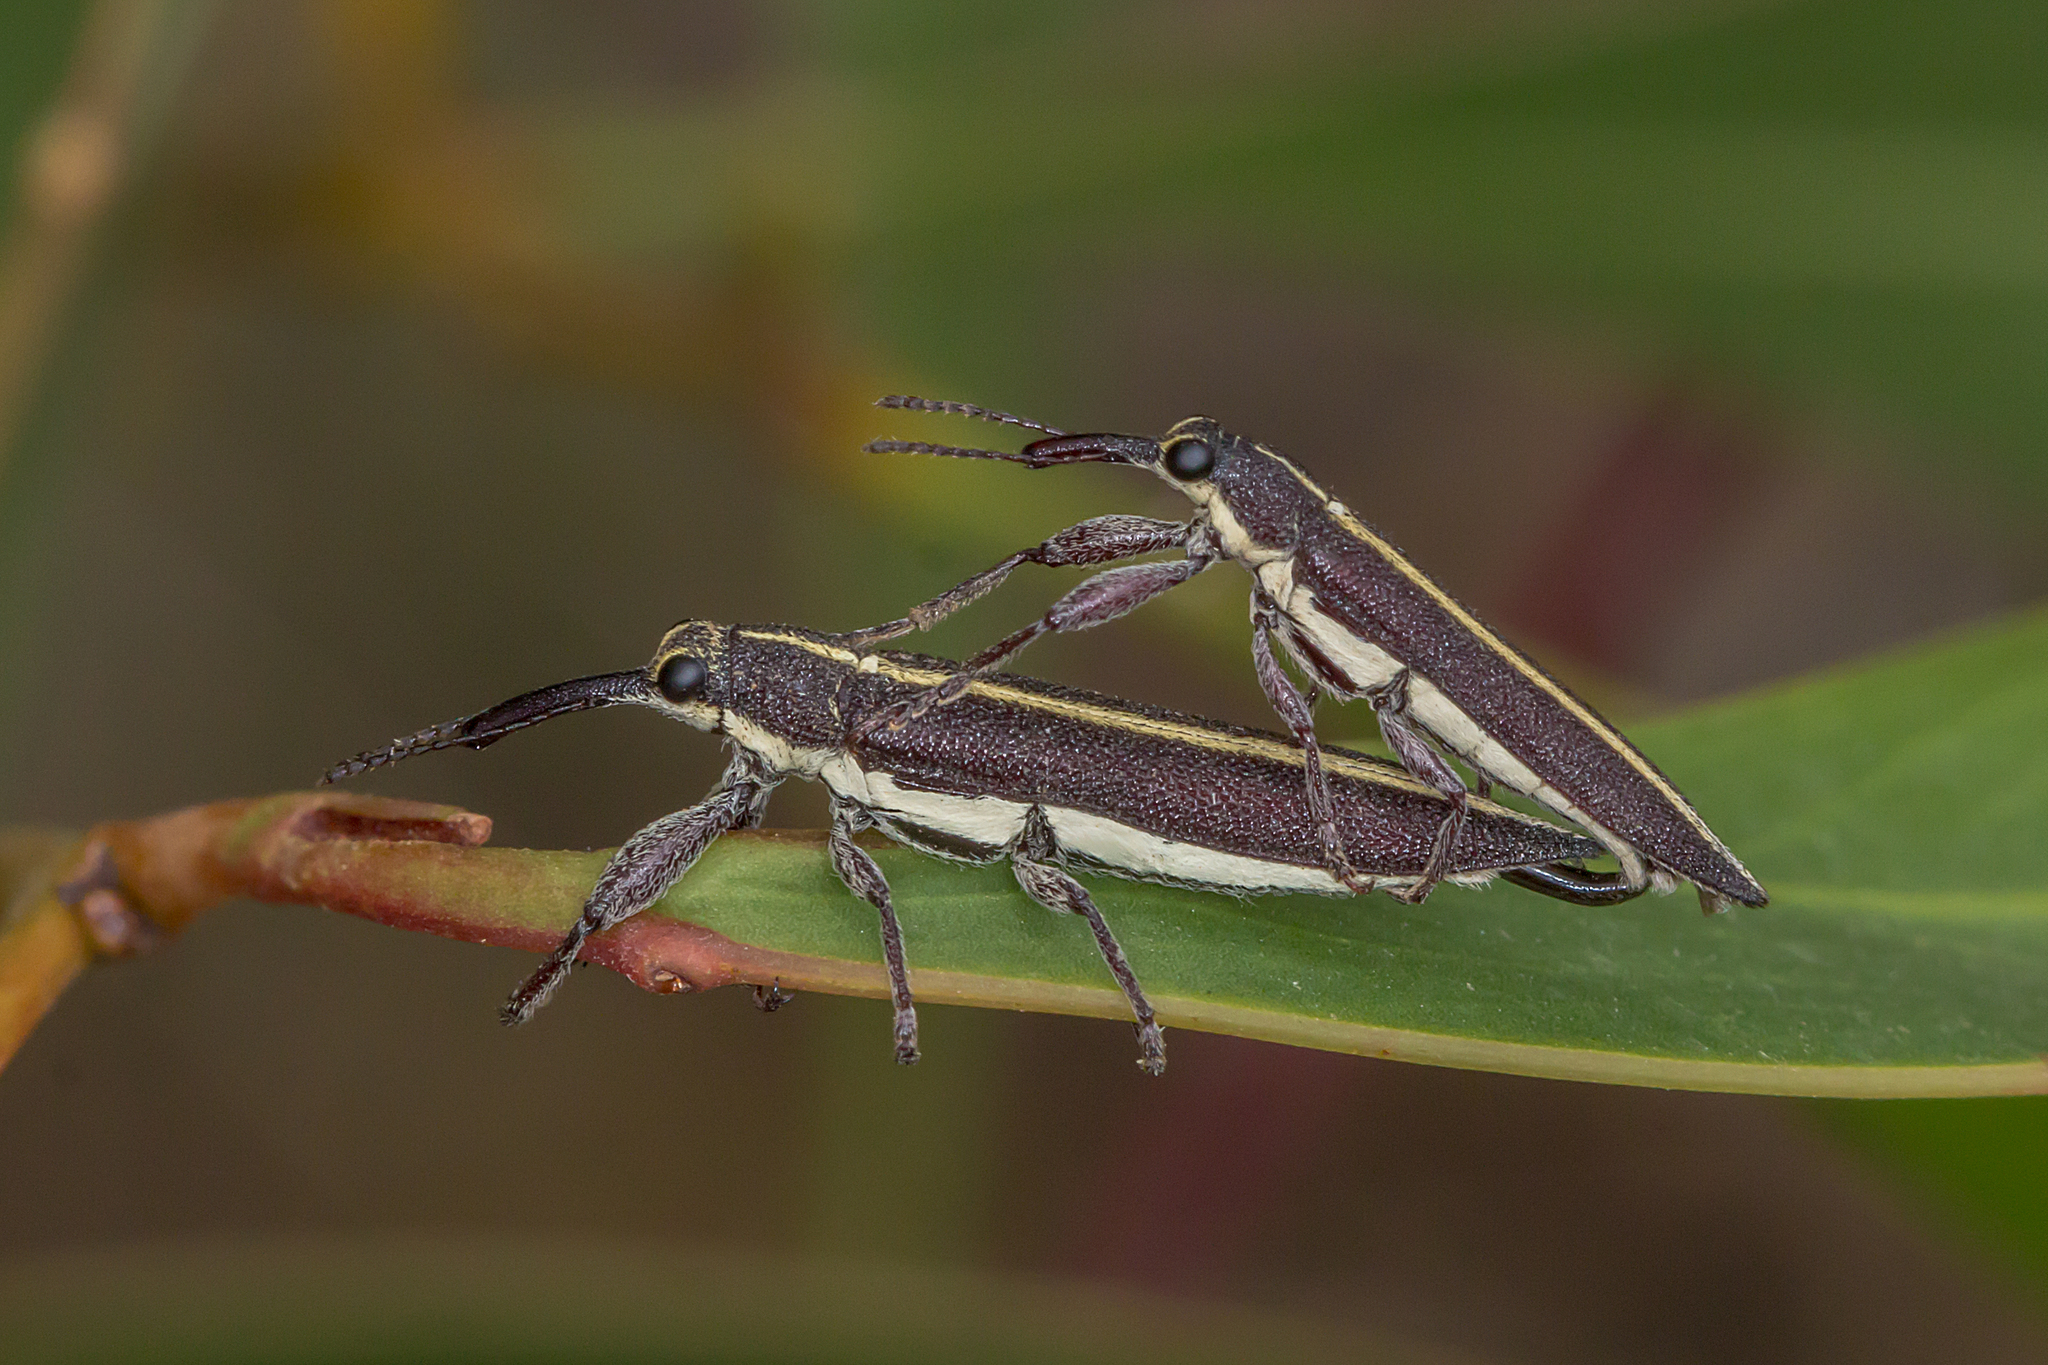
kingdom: Animalia
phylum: Arthropoda
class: Insecta
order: Coleoptera
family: Belidae
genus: Rhinotia
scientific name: Rhinotia suturalis
